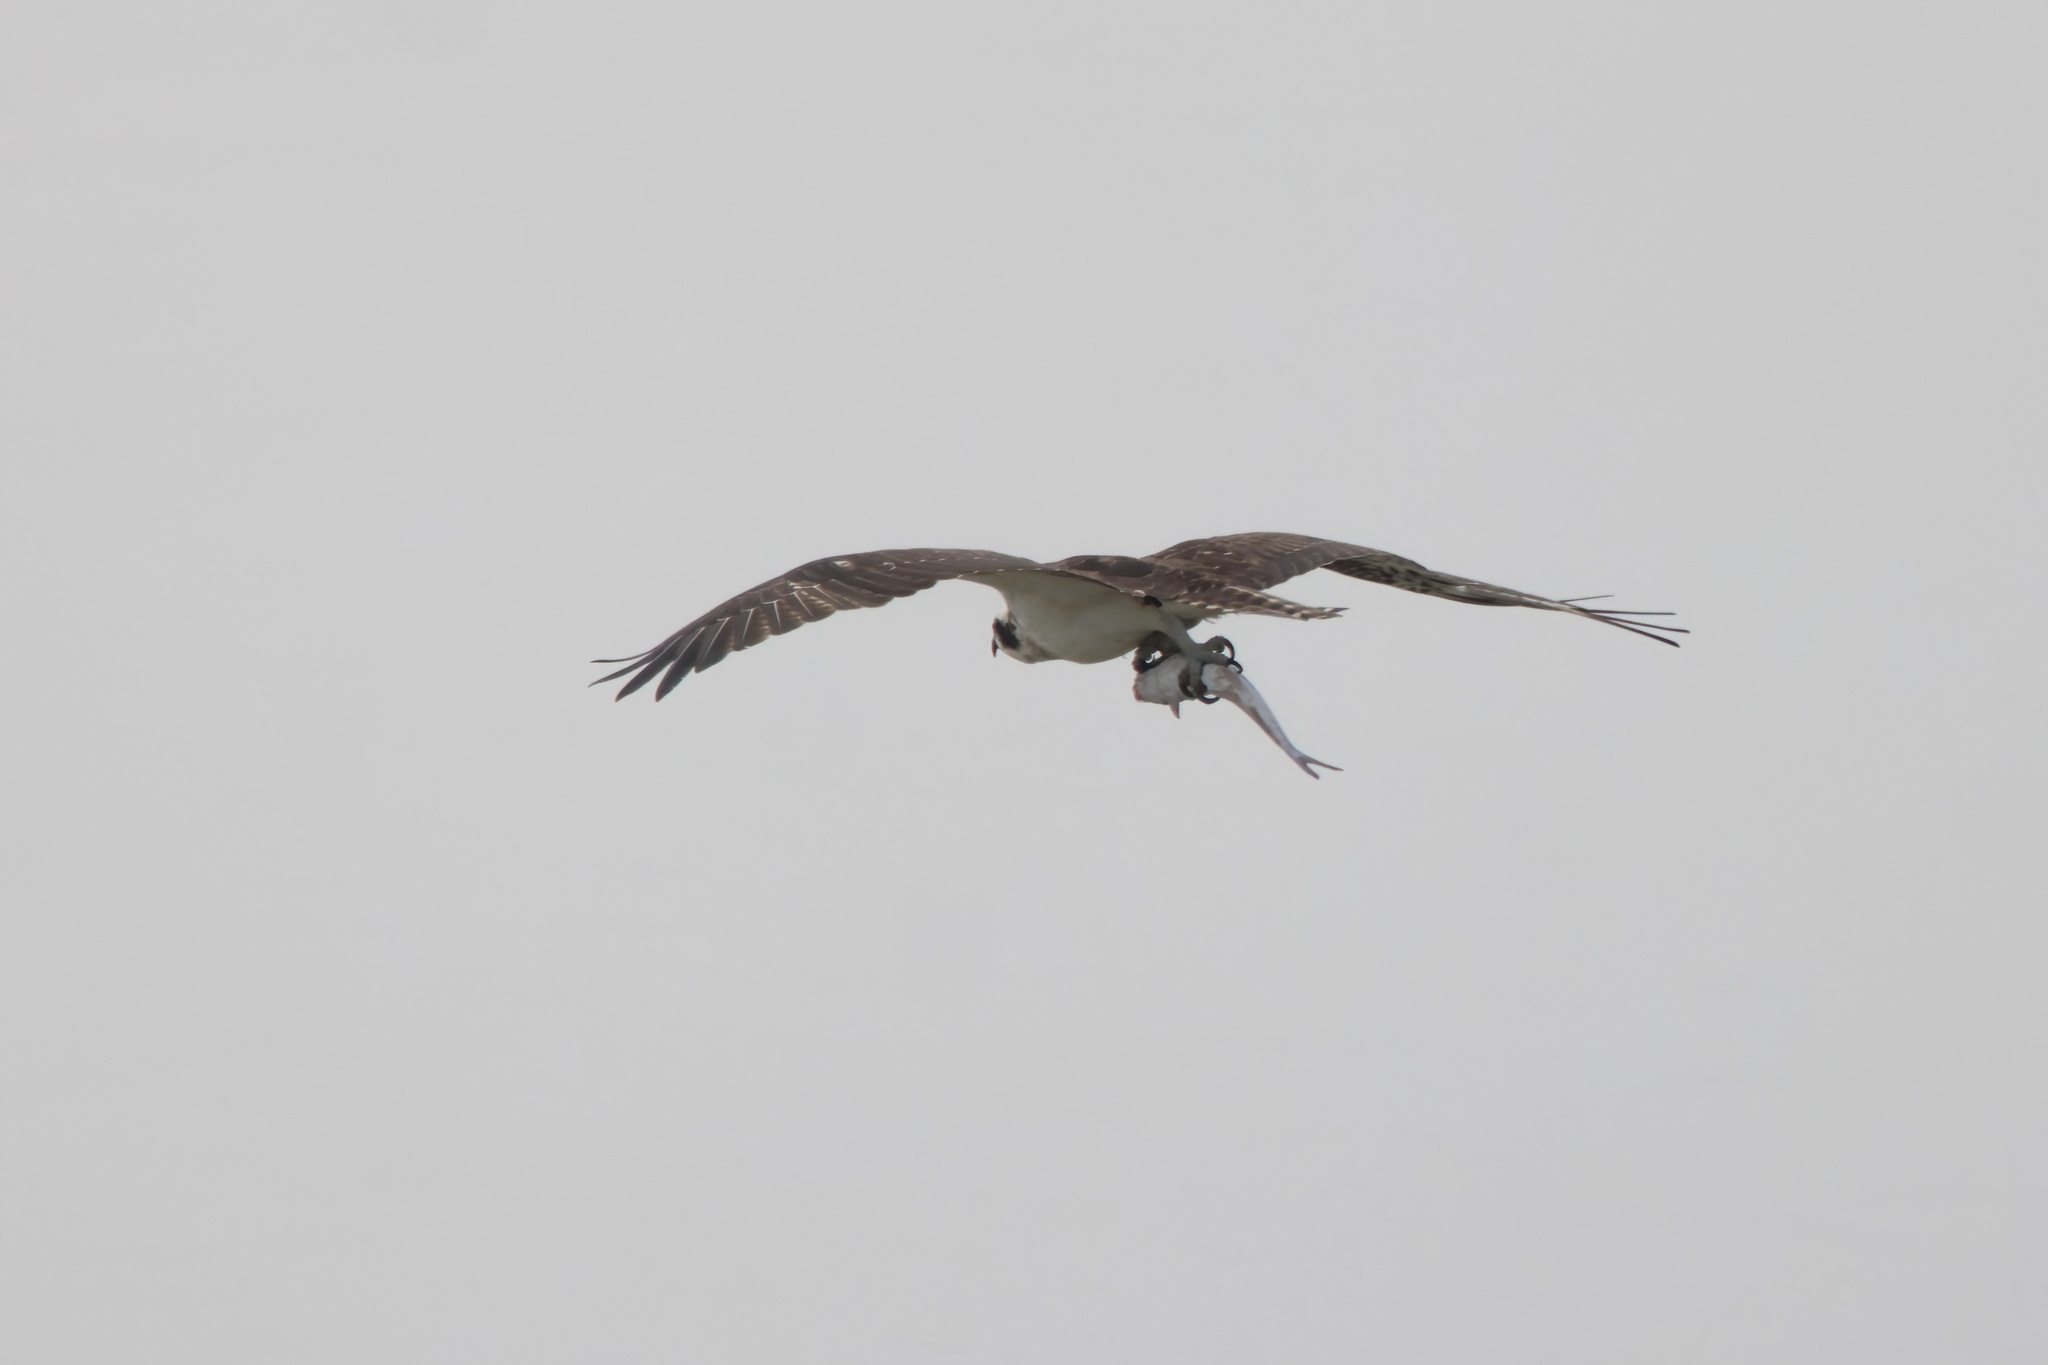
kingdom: Animalia
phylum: Chordata
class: Aves
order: Accipitriformes
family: Pandionidae
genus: Pandion
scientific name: Pandion haliaetus
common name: Osprey
